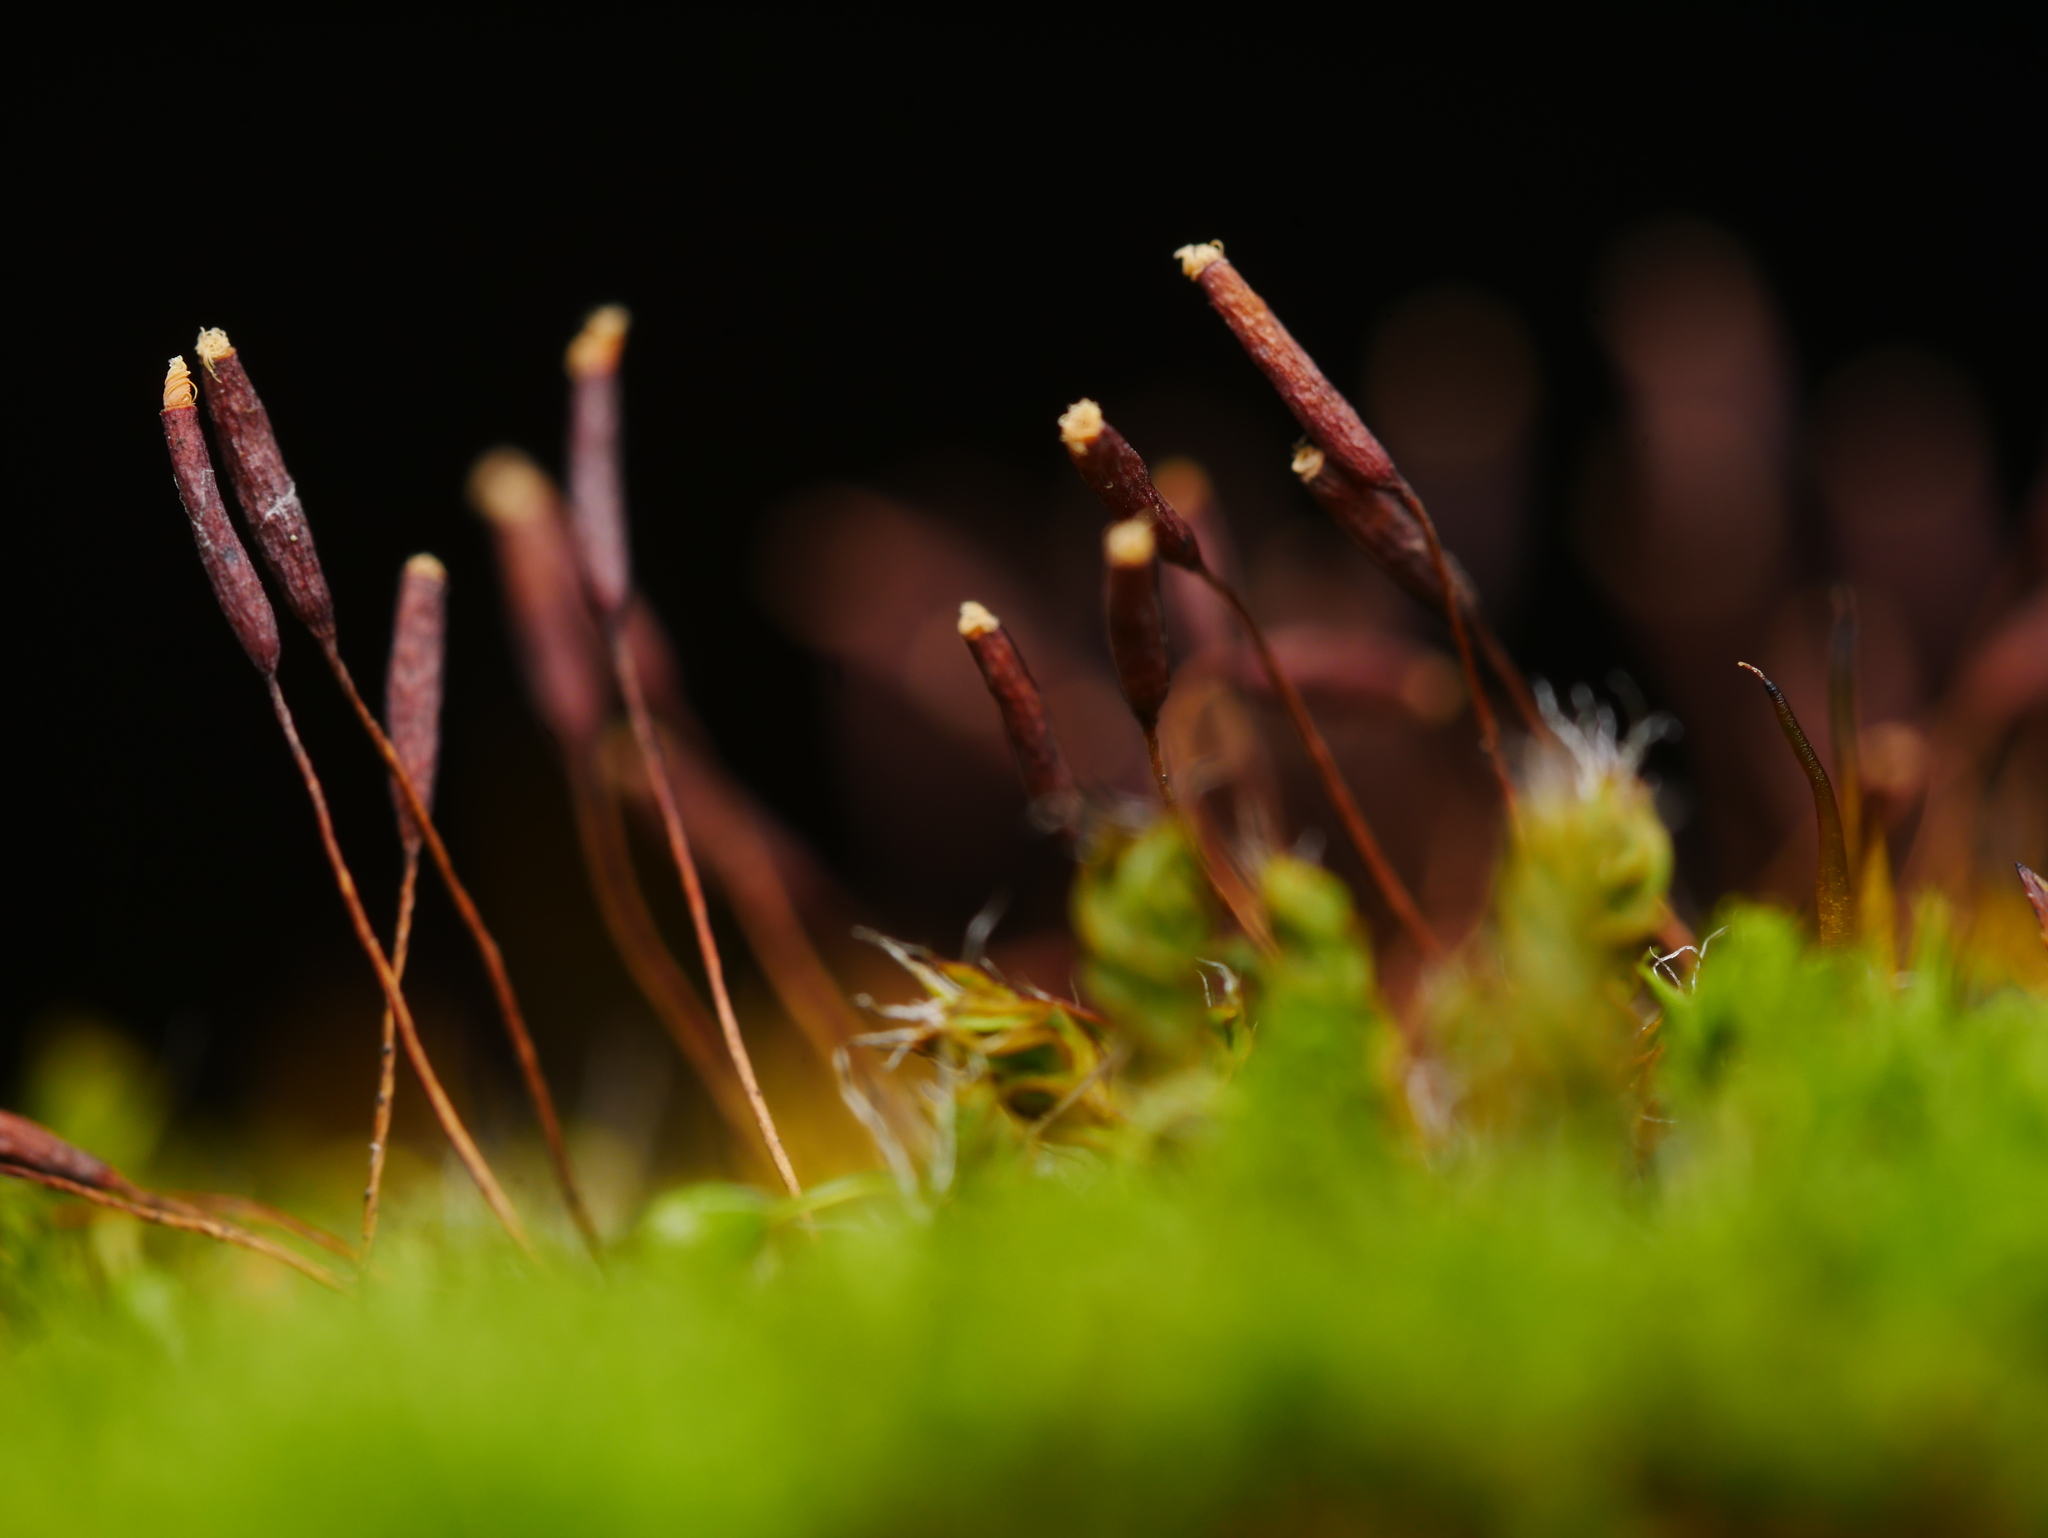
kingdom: Plantae
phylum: Bryophyta
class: Bryopsida
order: Pottiales
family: Pottiaceae
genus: Tortula
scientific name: Tortula muralis
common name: Wall screw-moss
